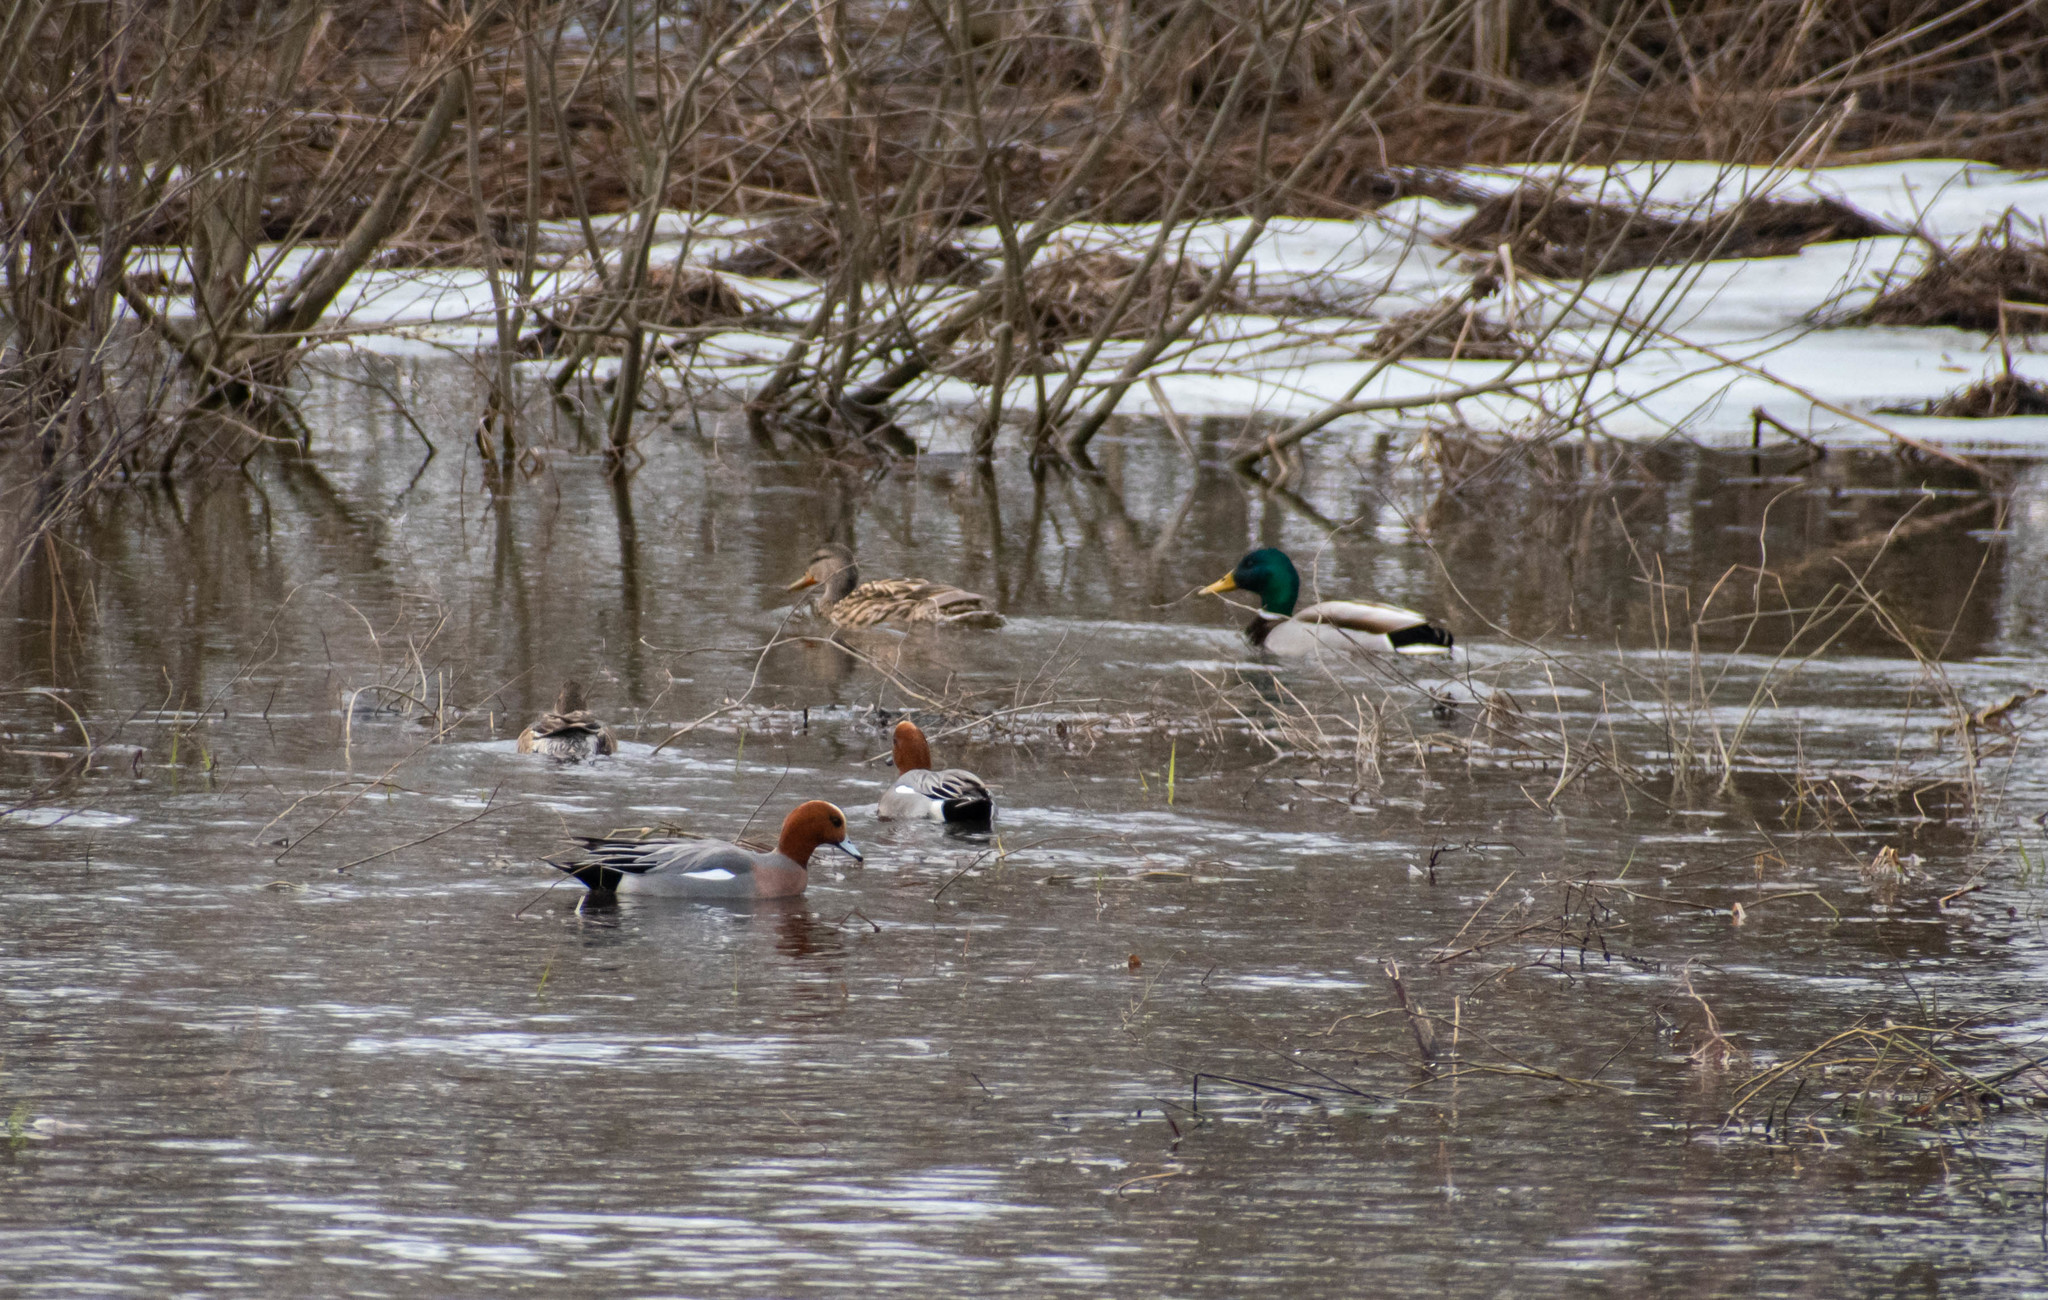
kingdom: Animalia
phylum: Chordata
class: Aves
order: Anseriformes
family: Anatidae
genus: Mareca
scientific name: Mareca penelope
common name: Eurasian wigeon
